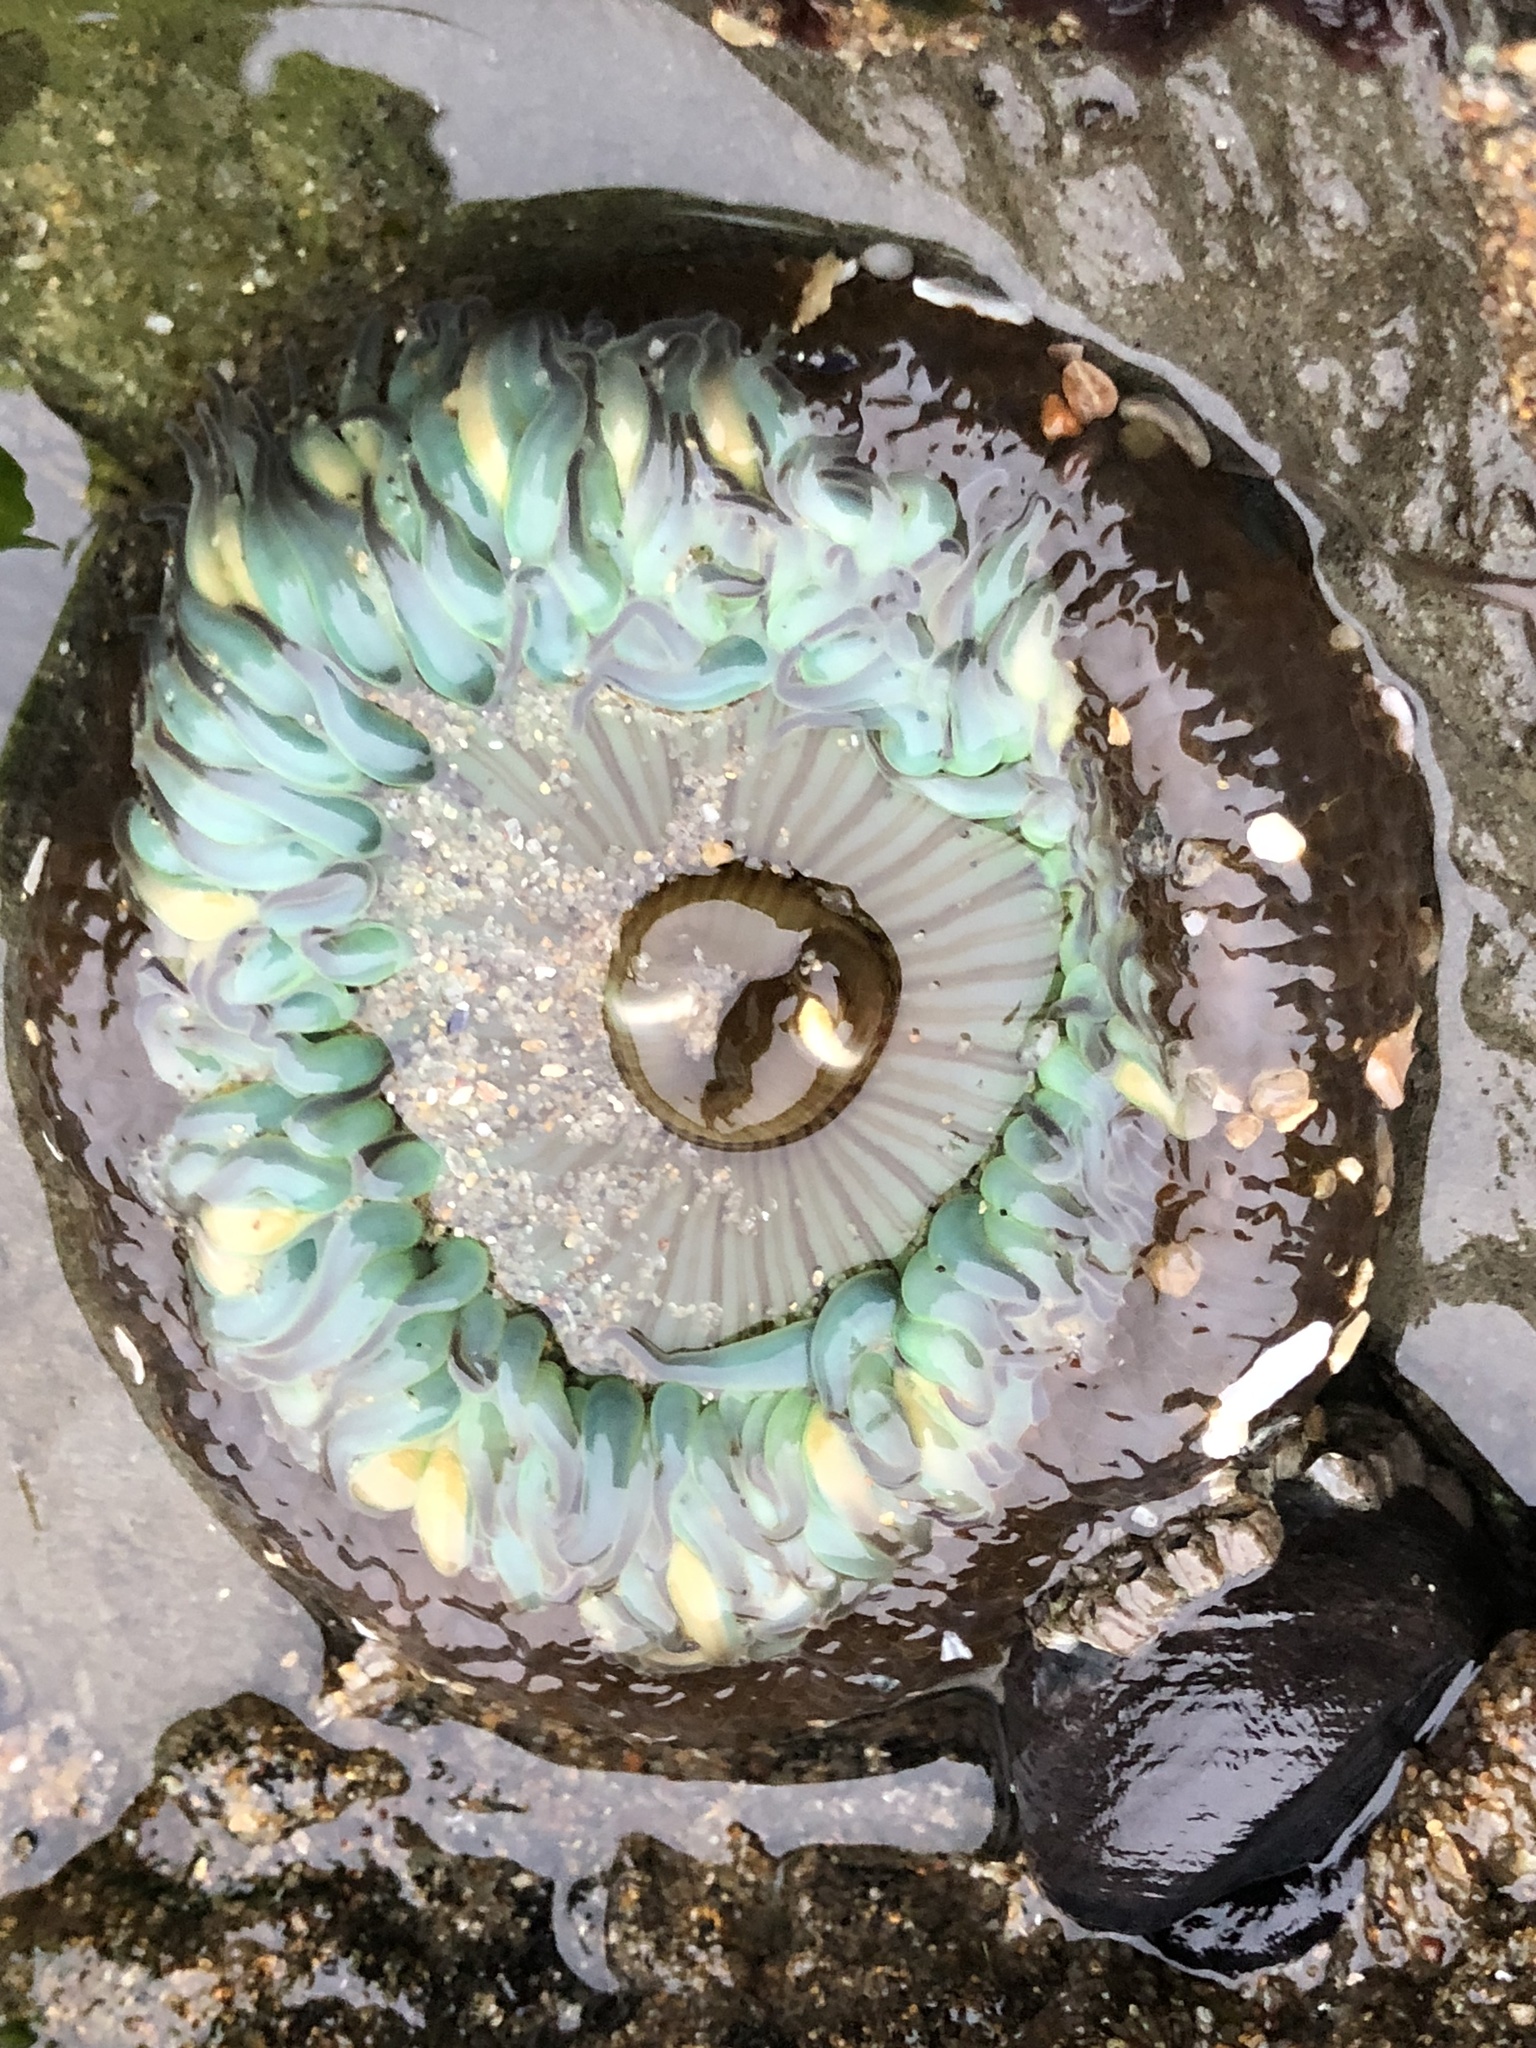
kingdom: Animalia
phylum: Cnidaria
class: Anthozoa
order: Actiniaria
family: Actiniidae
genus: Anthopleura
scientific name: Anthopleura sola
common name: Sun anemone
